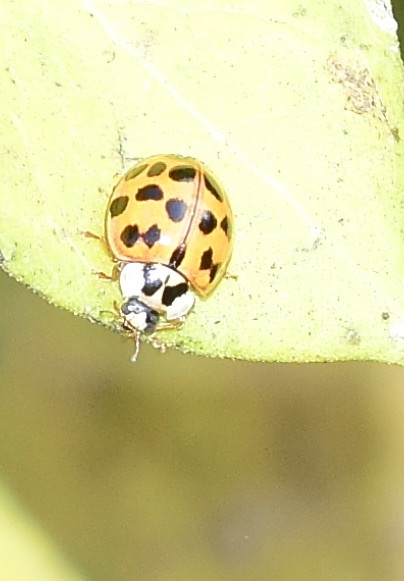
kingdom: Animalia
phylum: Arthropoda
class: Insecta
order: Coleoptera
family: Coccinellidae
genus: Harmonia
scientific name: Harmonia axyridis
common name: Harlequin ladybird
